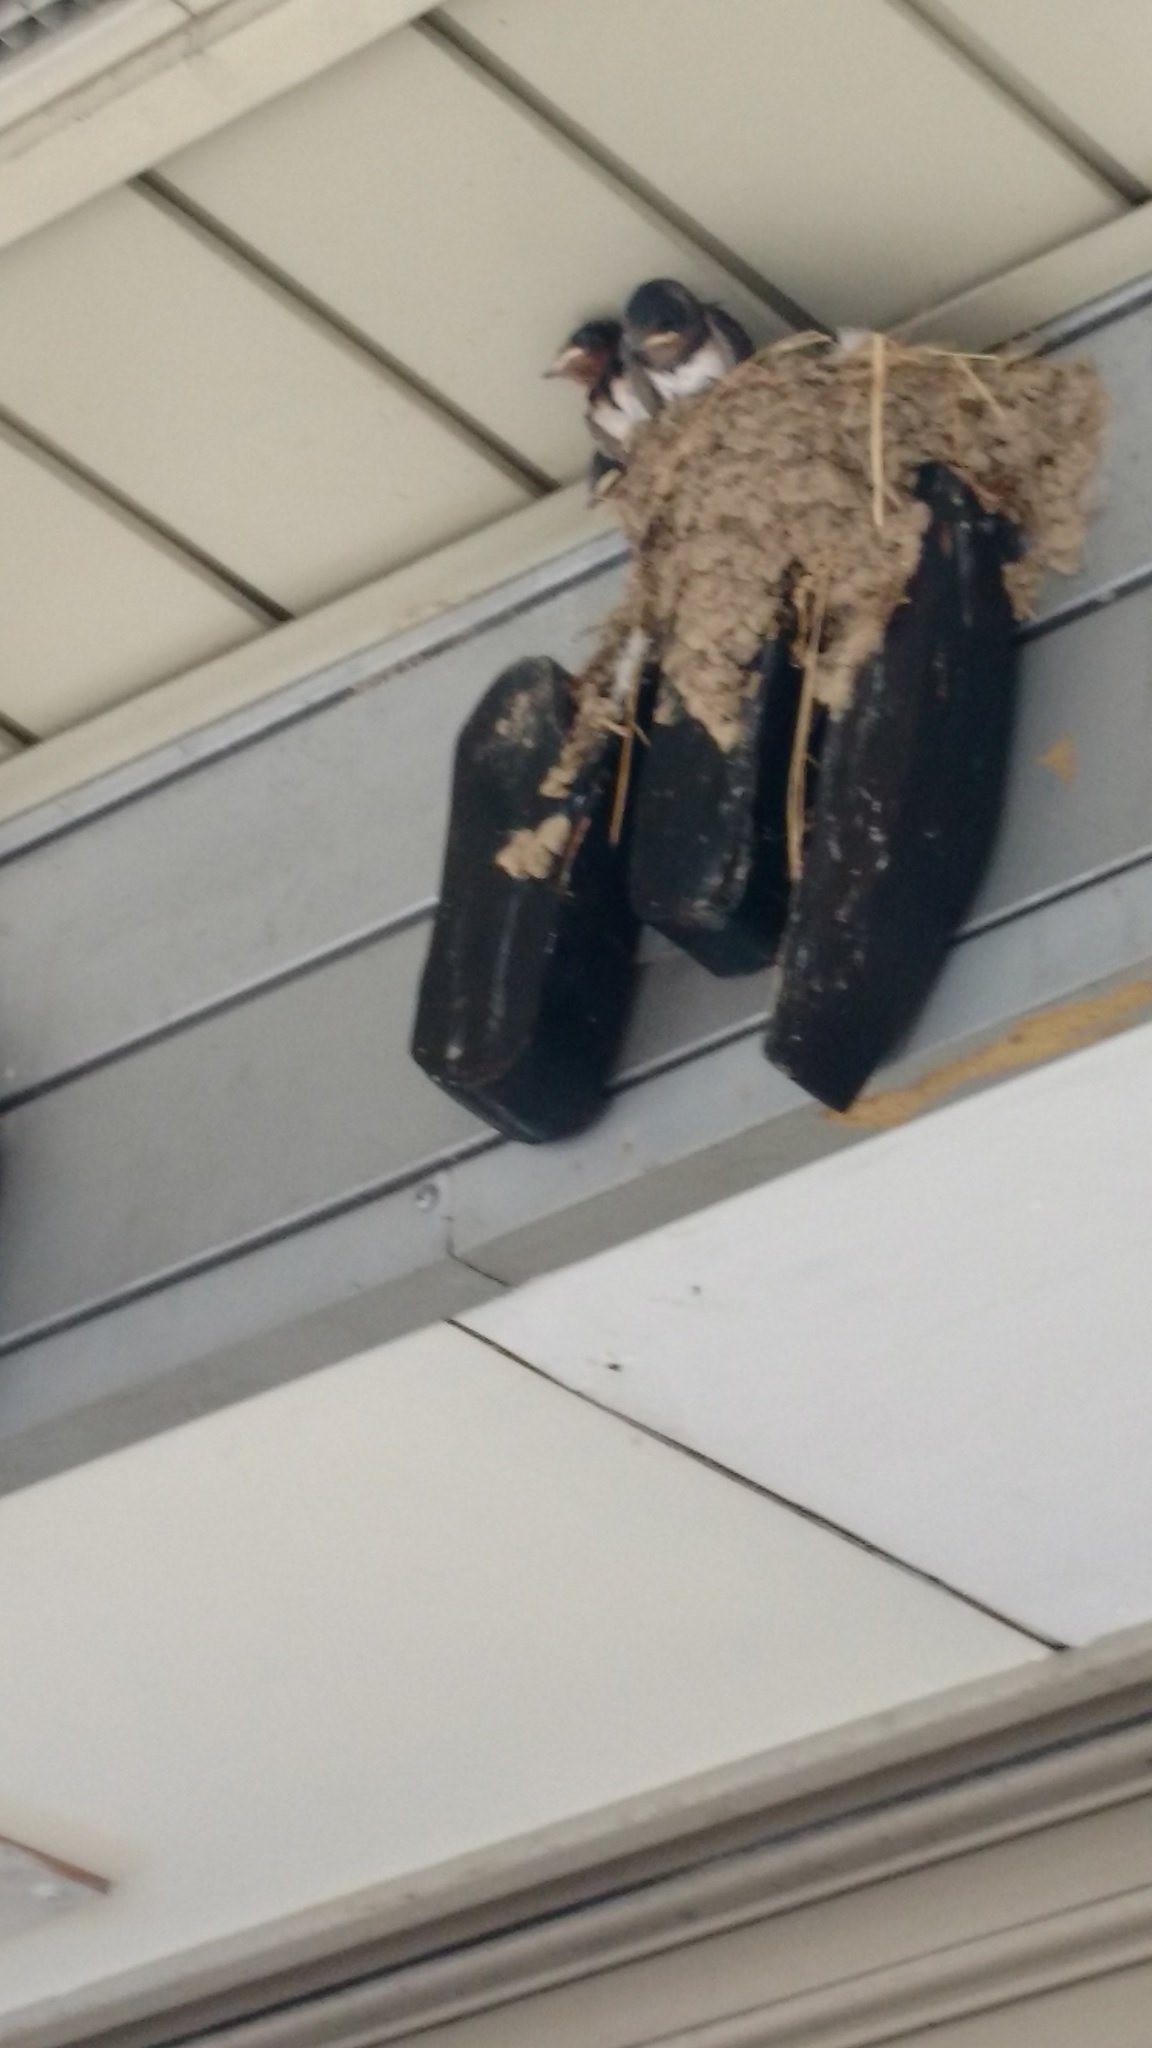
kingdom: Animalia
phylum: Chordata
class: Aves
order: Passeriformes
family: Hirundinidae
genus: Hirundo
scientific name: Hirundo rustica
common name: Barn swallow
